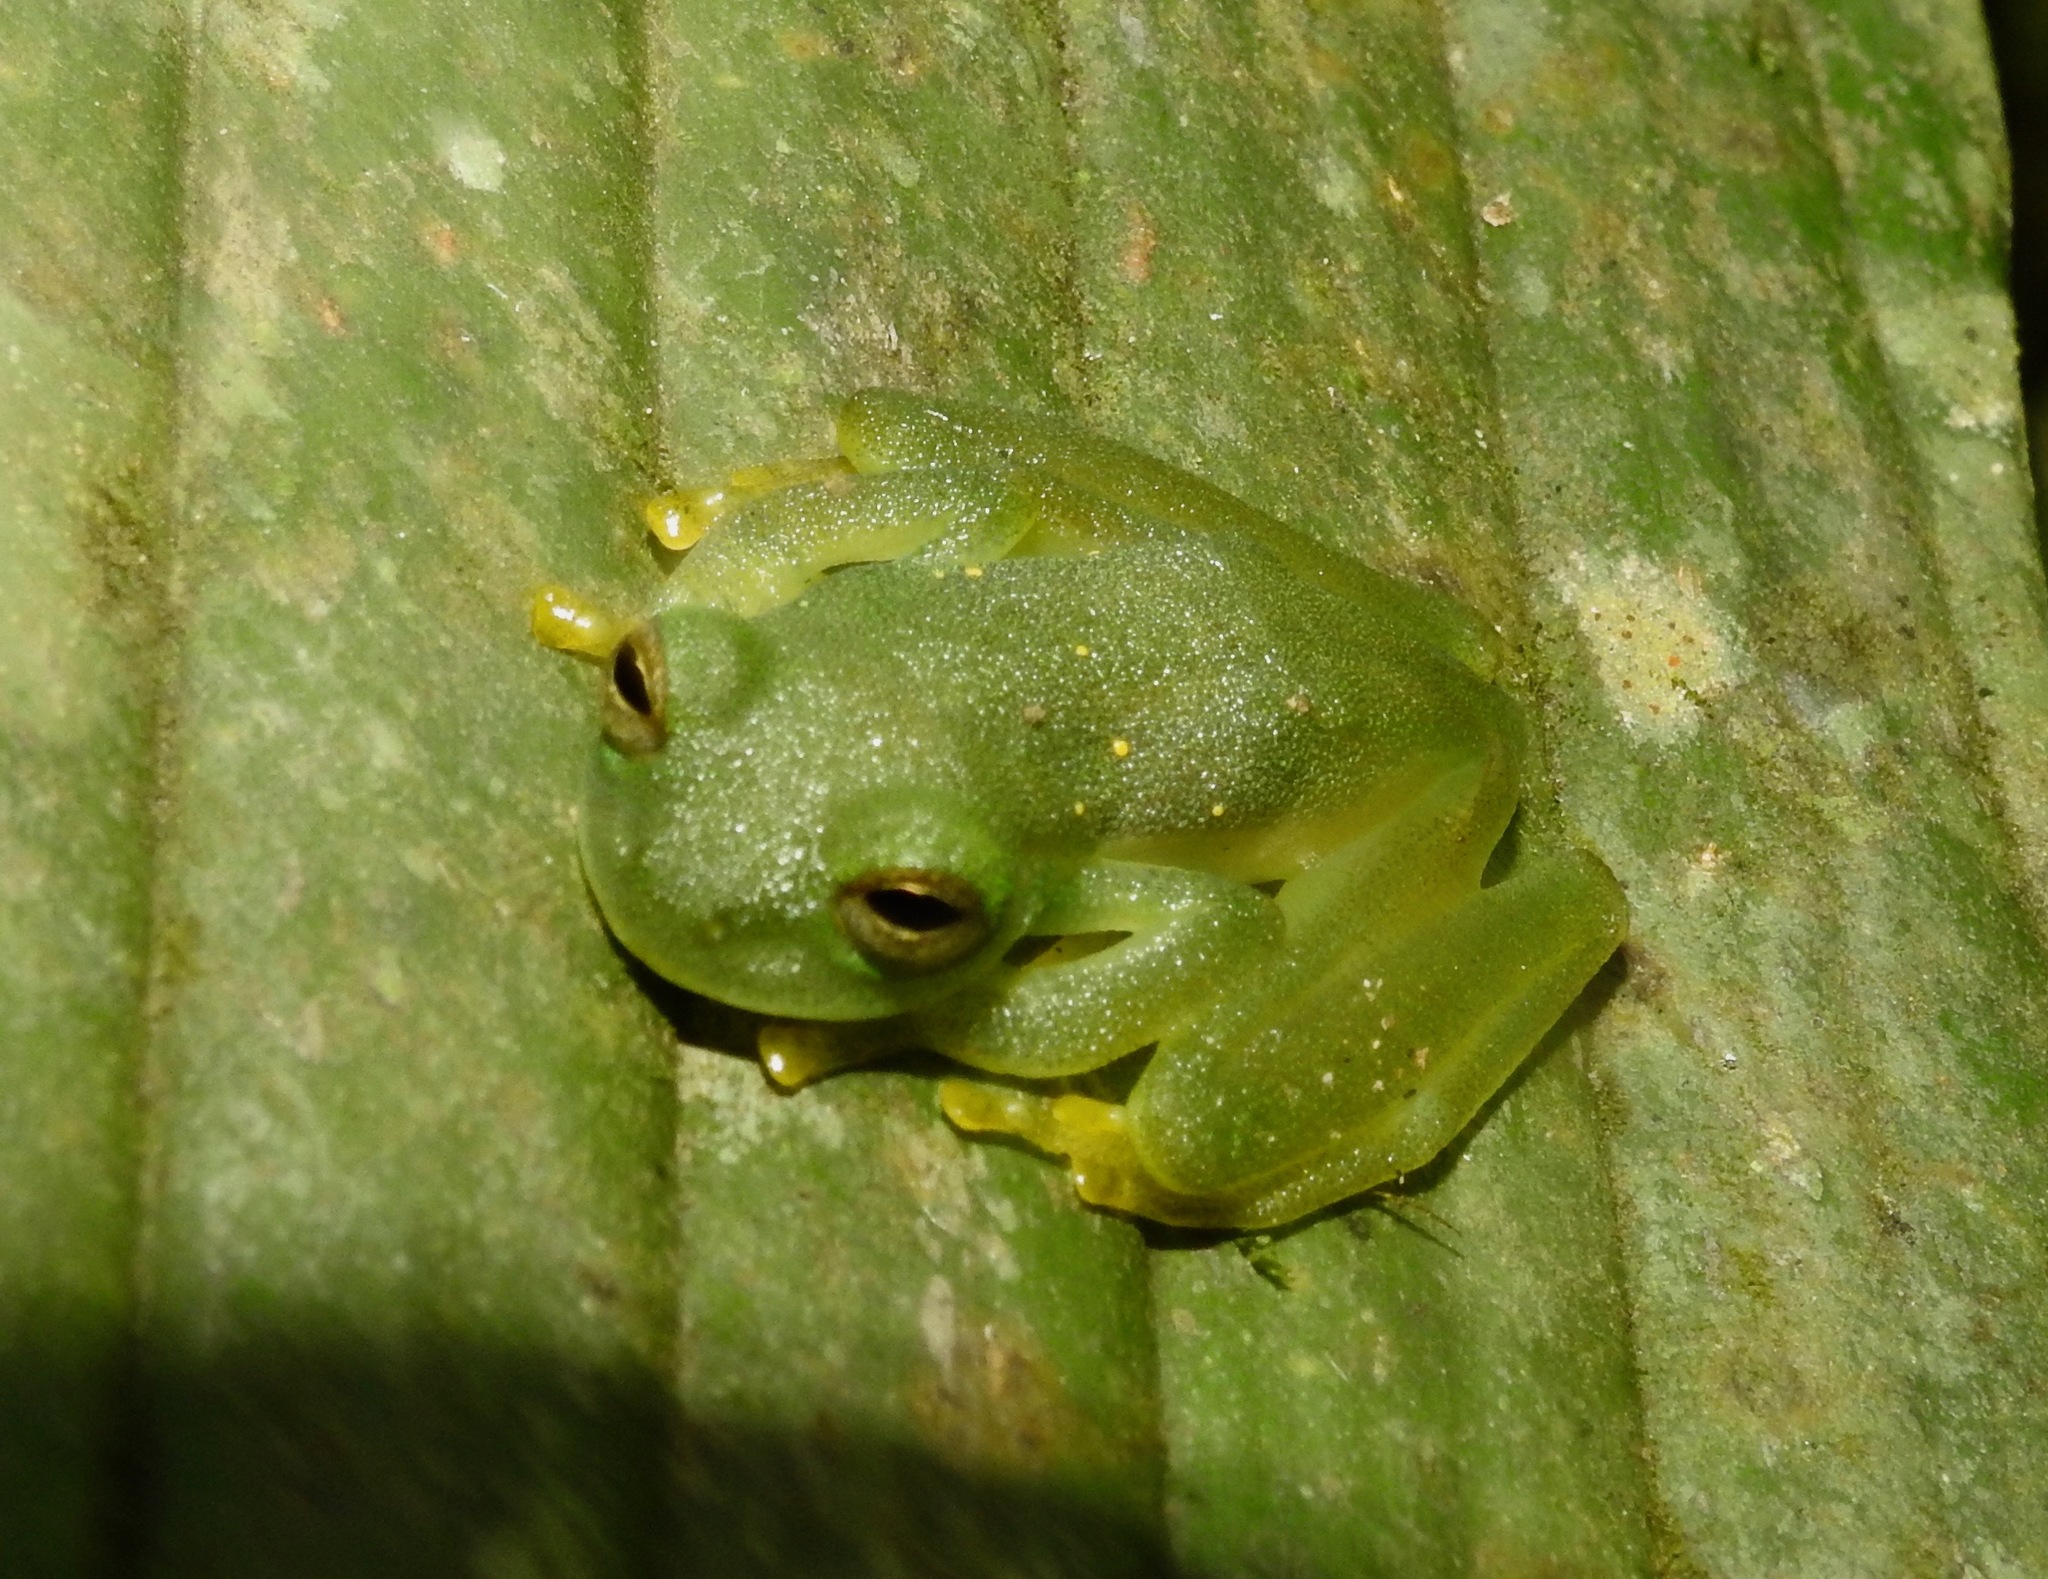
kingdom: Animalia
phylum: Chordata
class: Amphibia
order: Anura
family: Centrolenidae
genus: Espadarana
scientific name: Espadarana prosoblepon
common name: Rana de cristal variable
